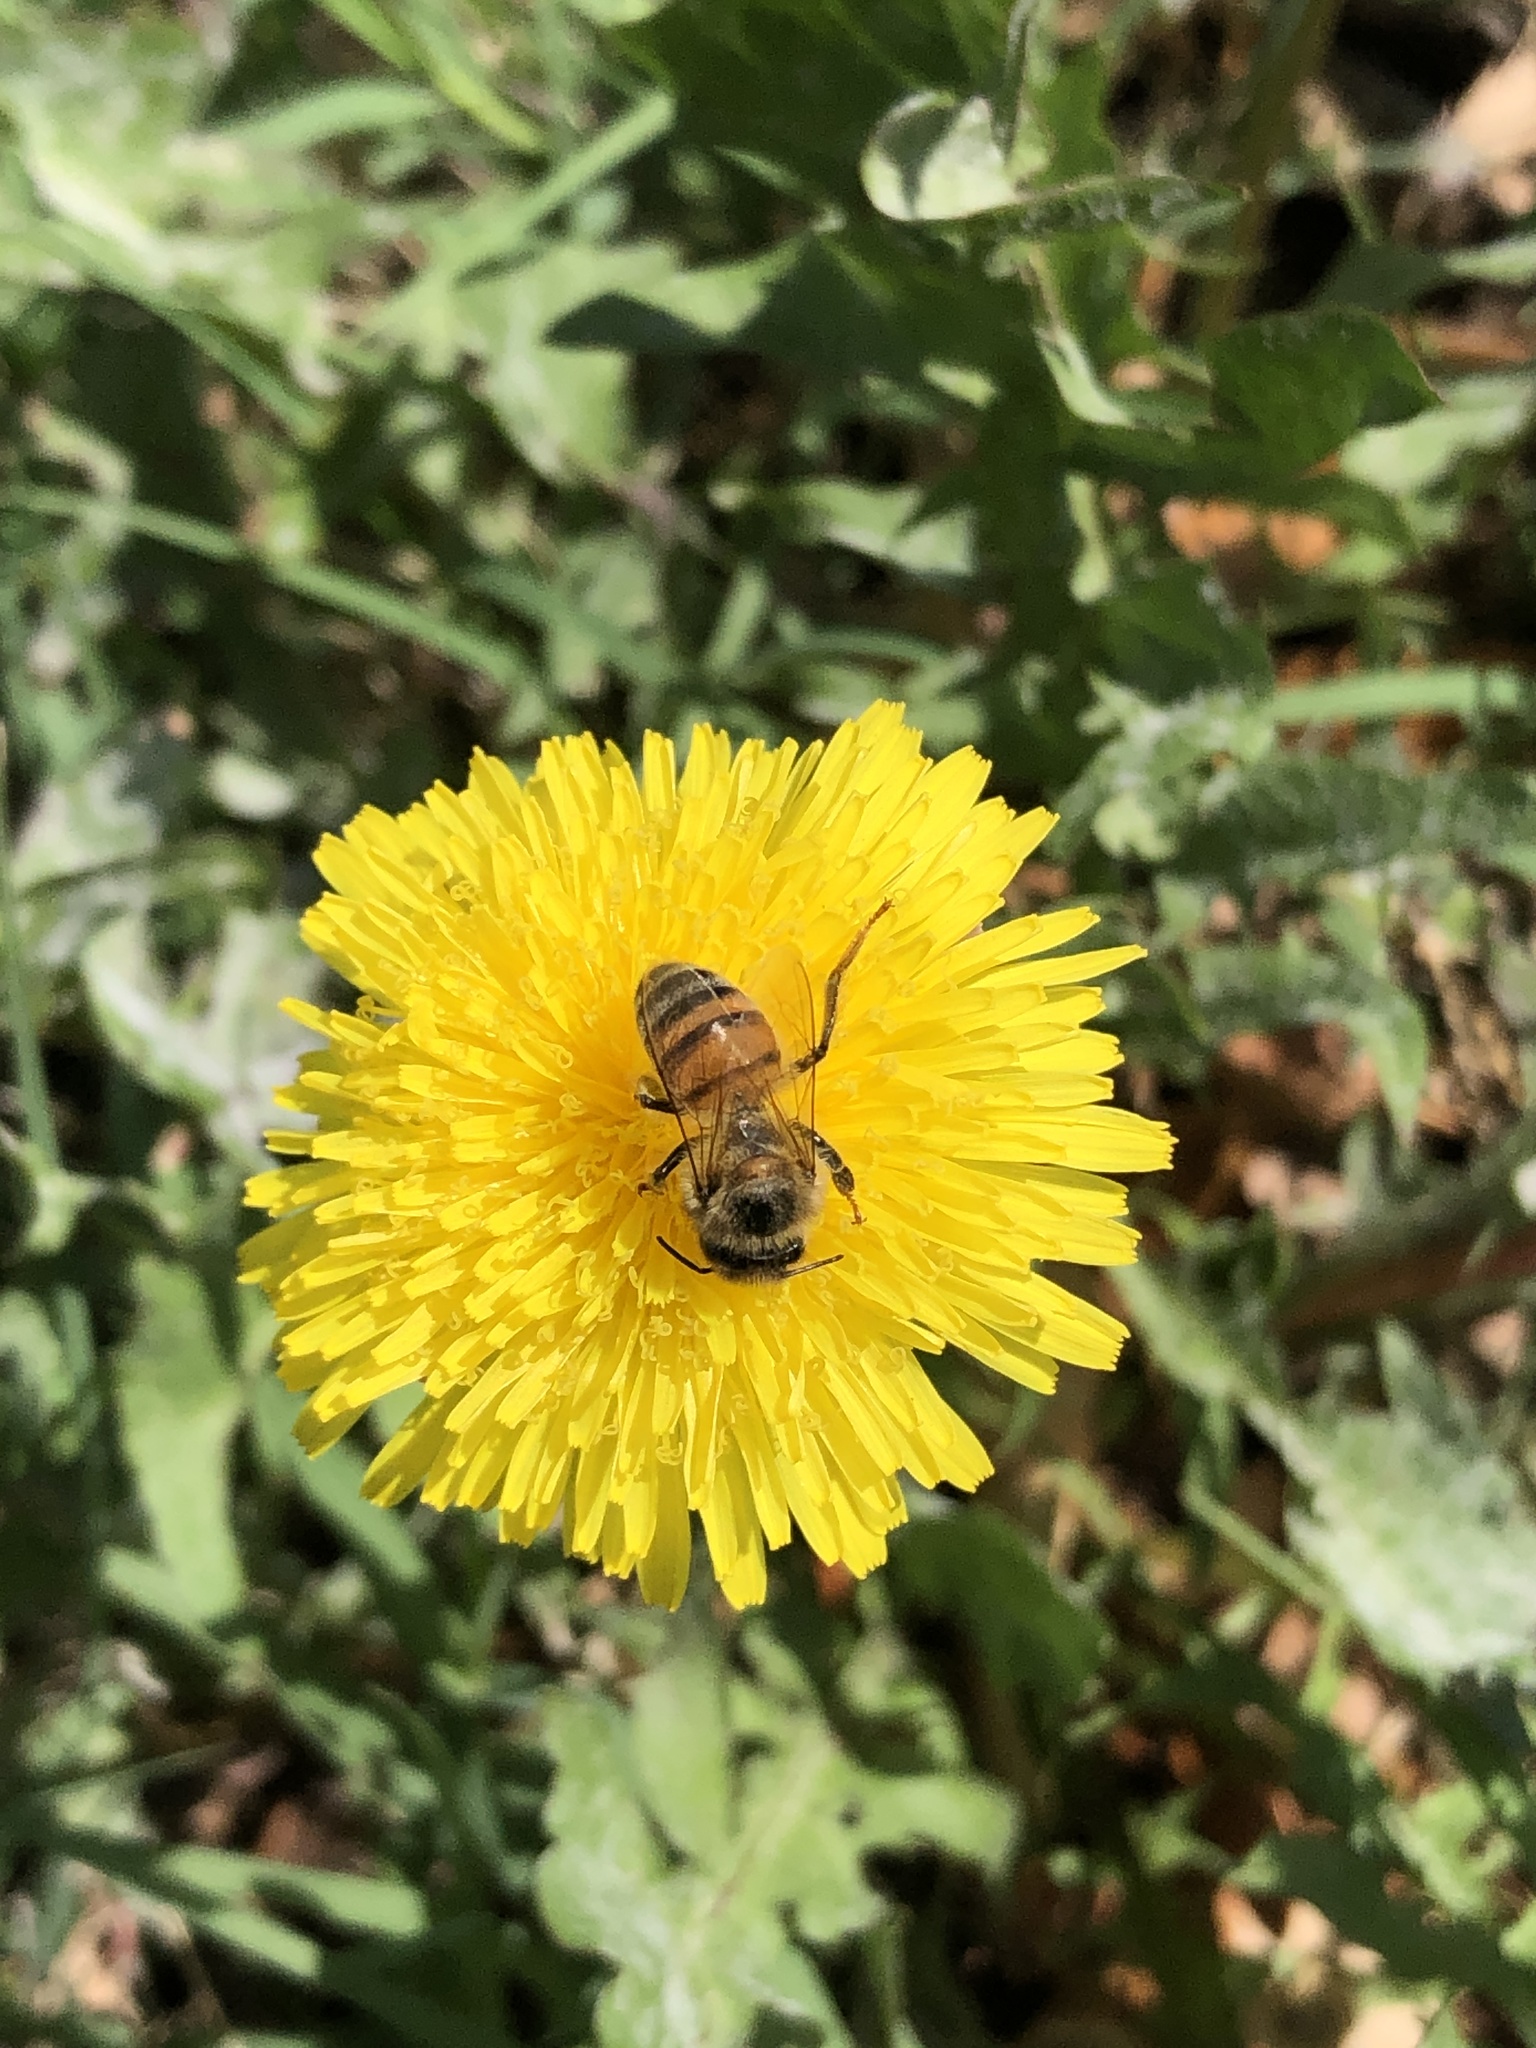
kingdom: Animalia
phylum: Arthropoda
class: Insecta
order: Hymenoptera
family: Apidae
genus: Apis
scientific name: Apis mellifera
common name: Honey bee
